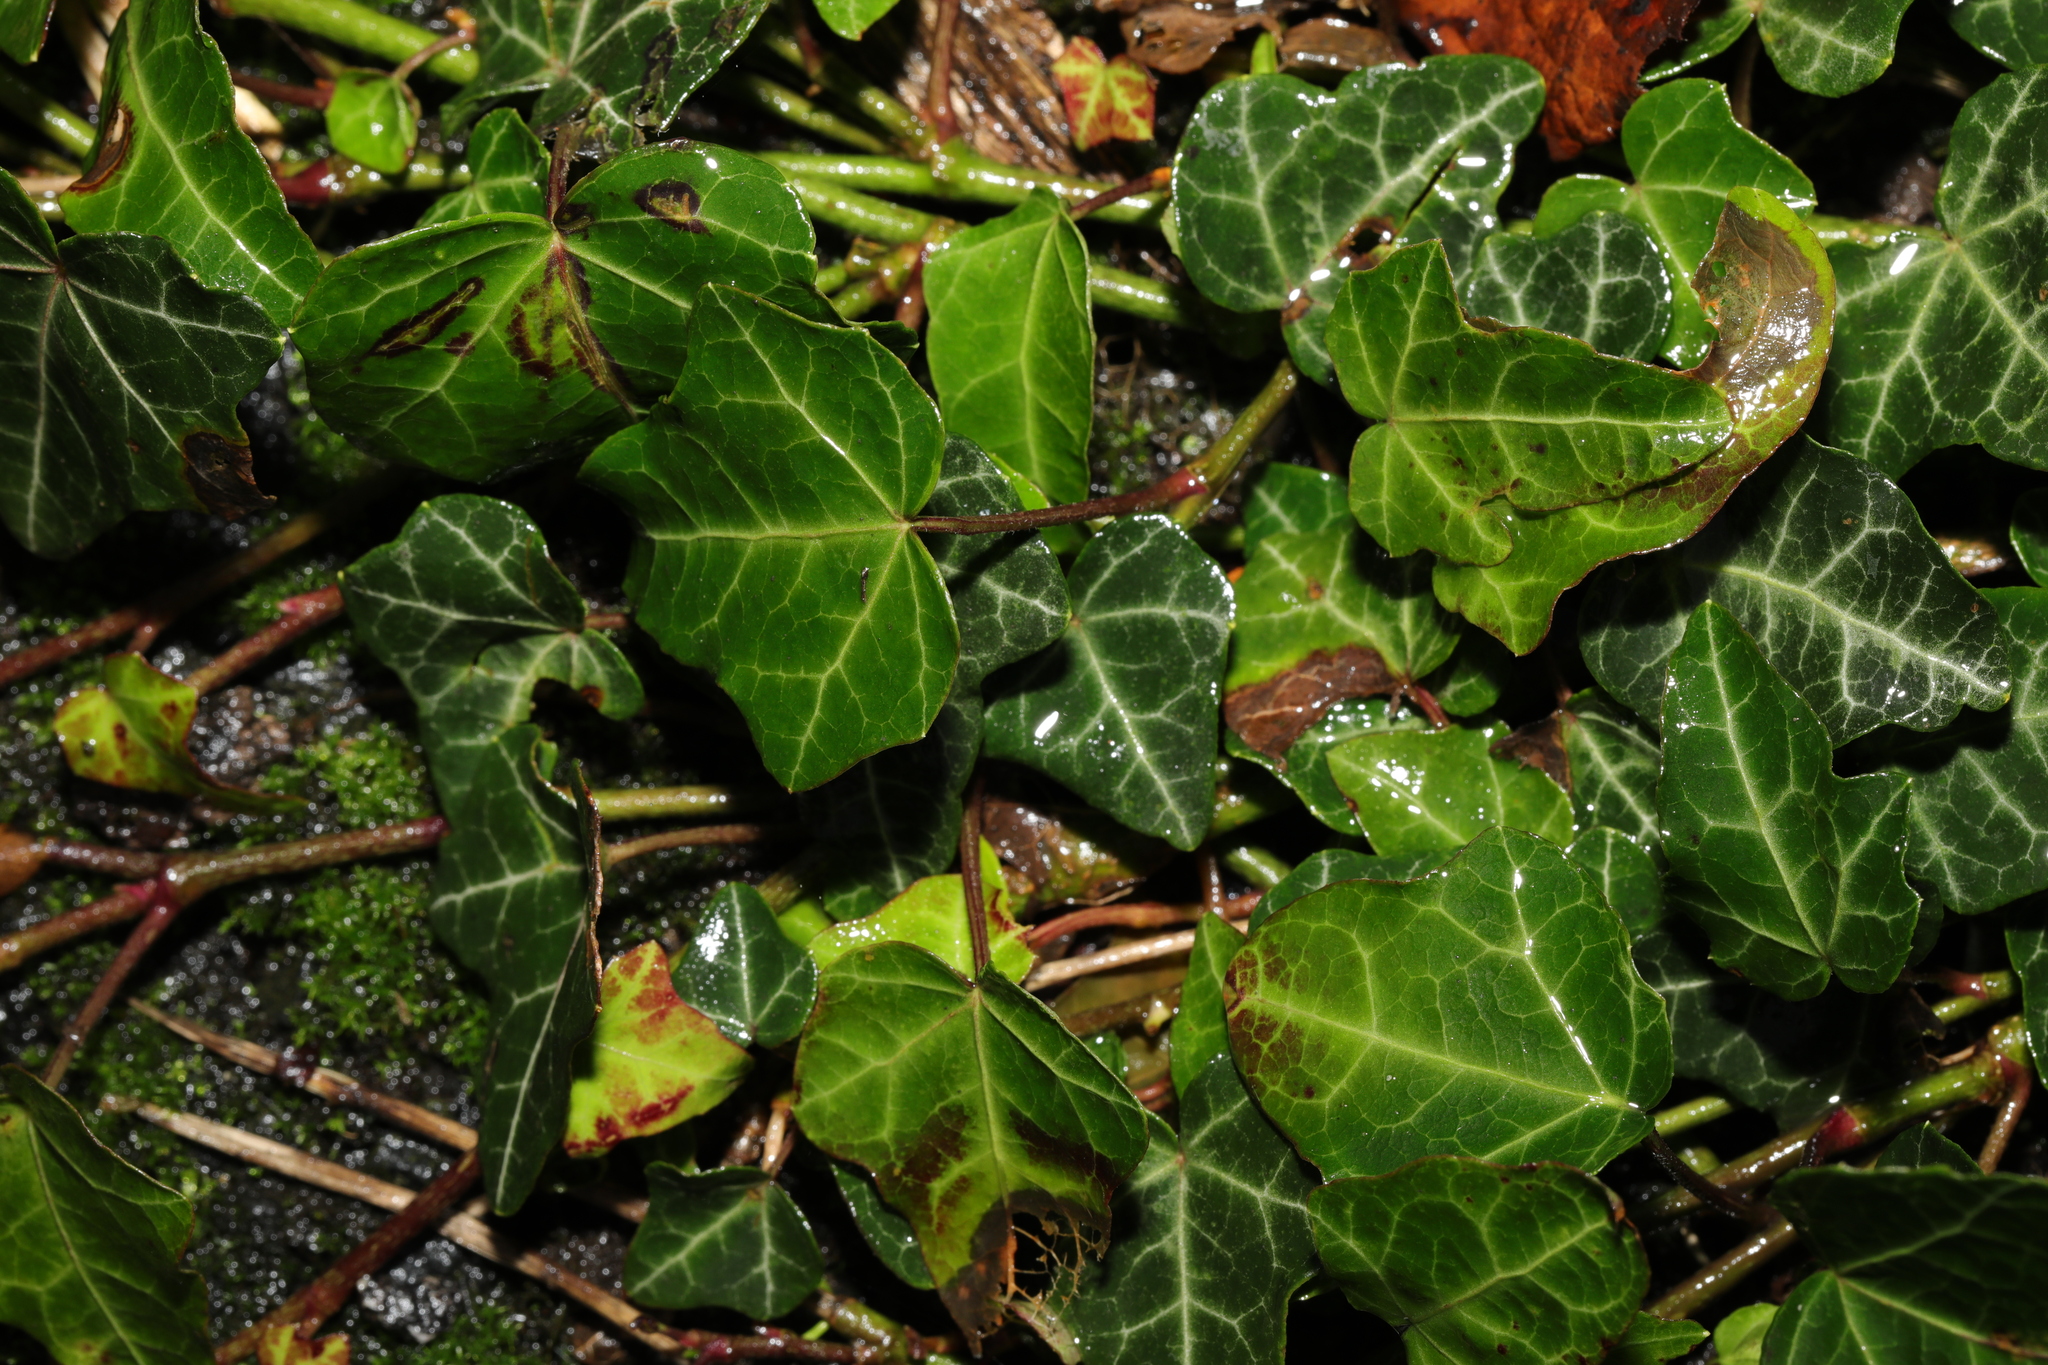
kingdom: Plantae
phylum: Tracheophyta
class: Magnoliopsida
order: Apiales
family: Araliaceae
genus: Hedera
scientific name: Hedera helix
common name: Ivy
